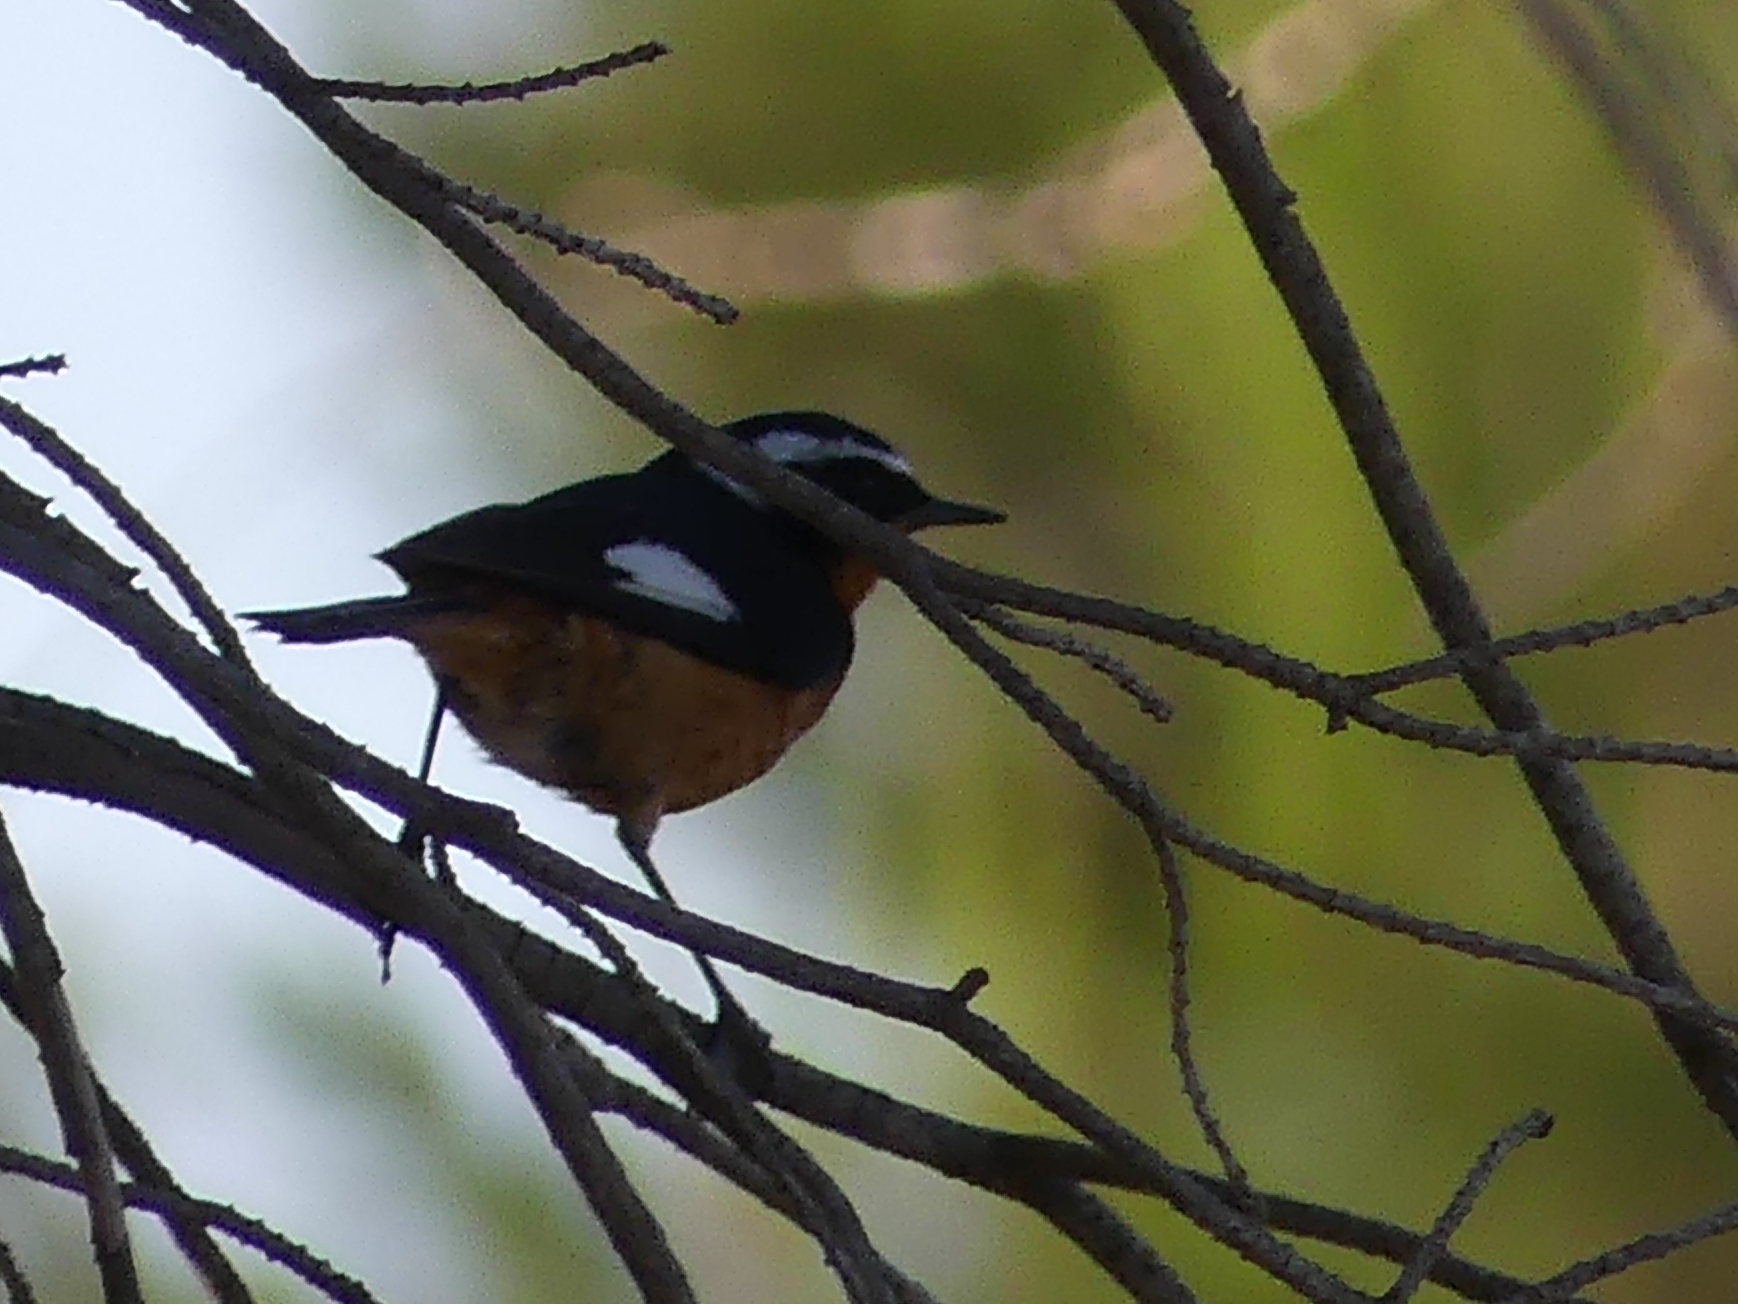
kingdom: Animalia
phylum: Chordata
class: Aves
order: Passeriformes
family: Muscicapidae
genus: Phoenicurus
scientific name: Phoenicurus moussieri
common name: Moussier's redstart
